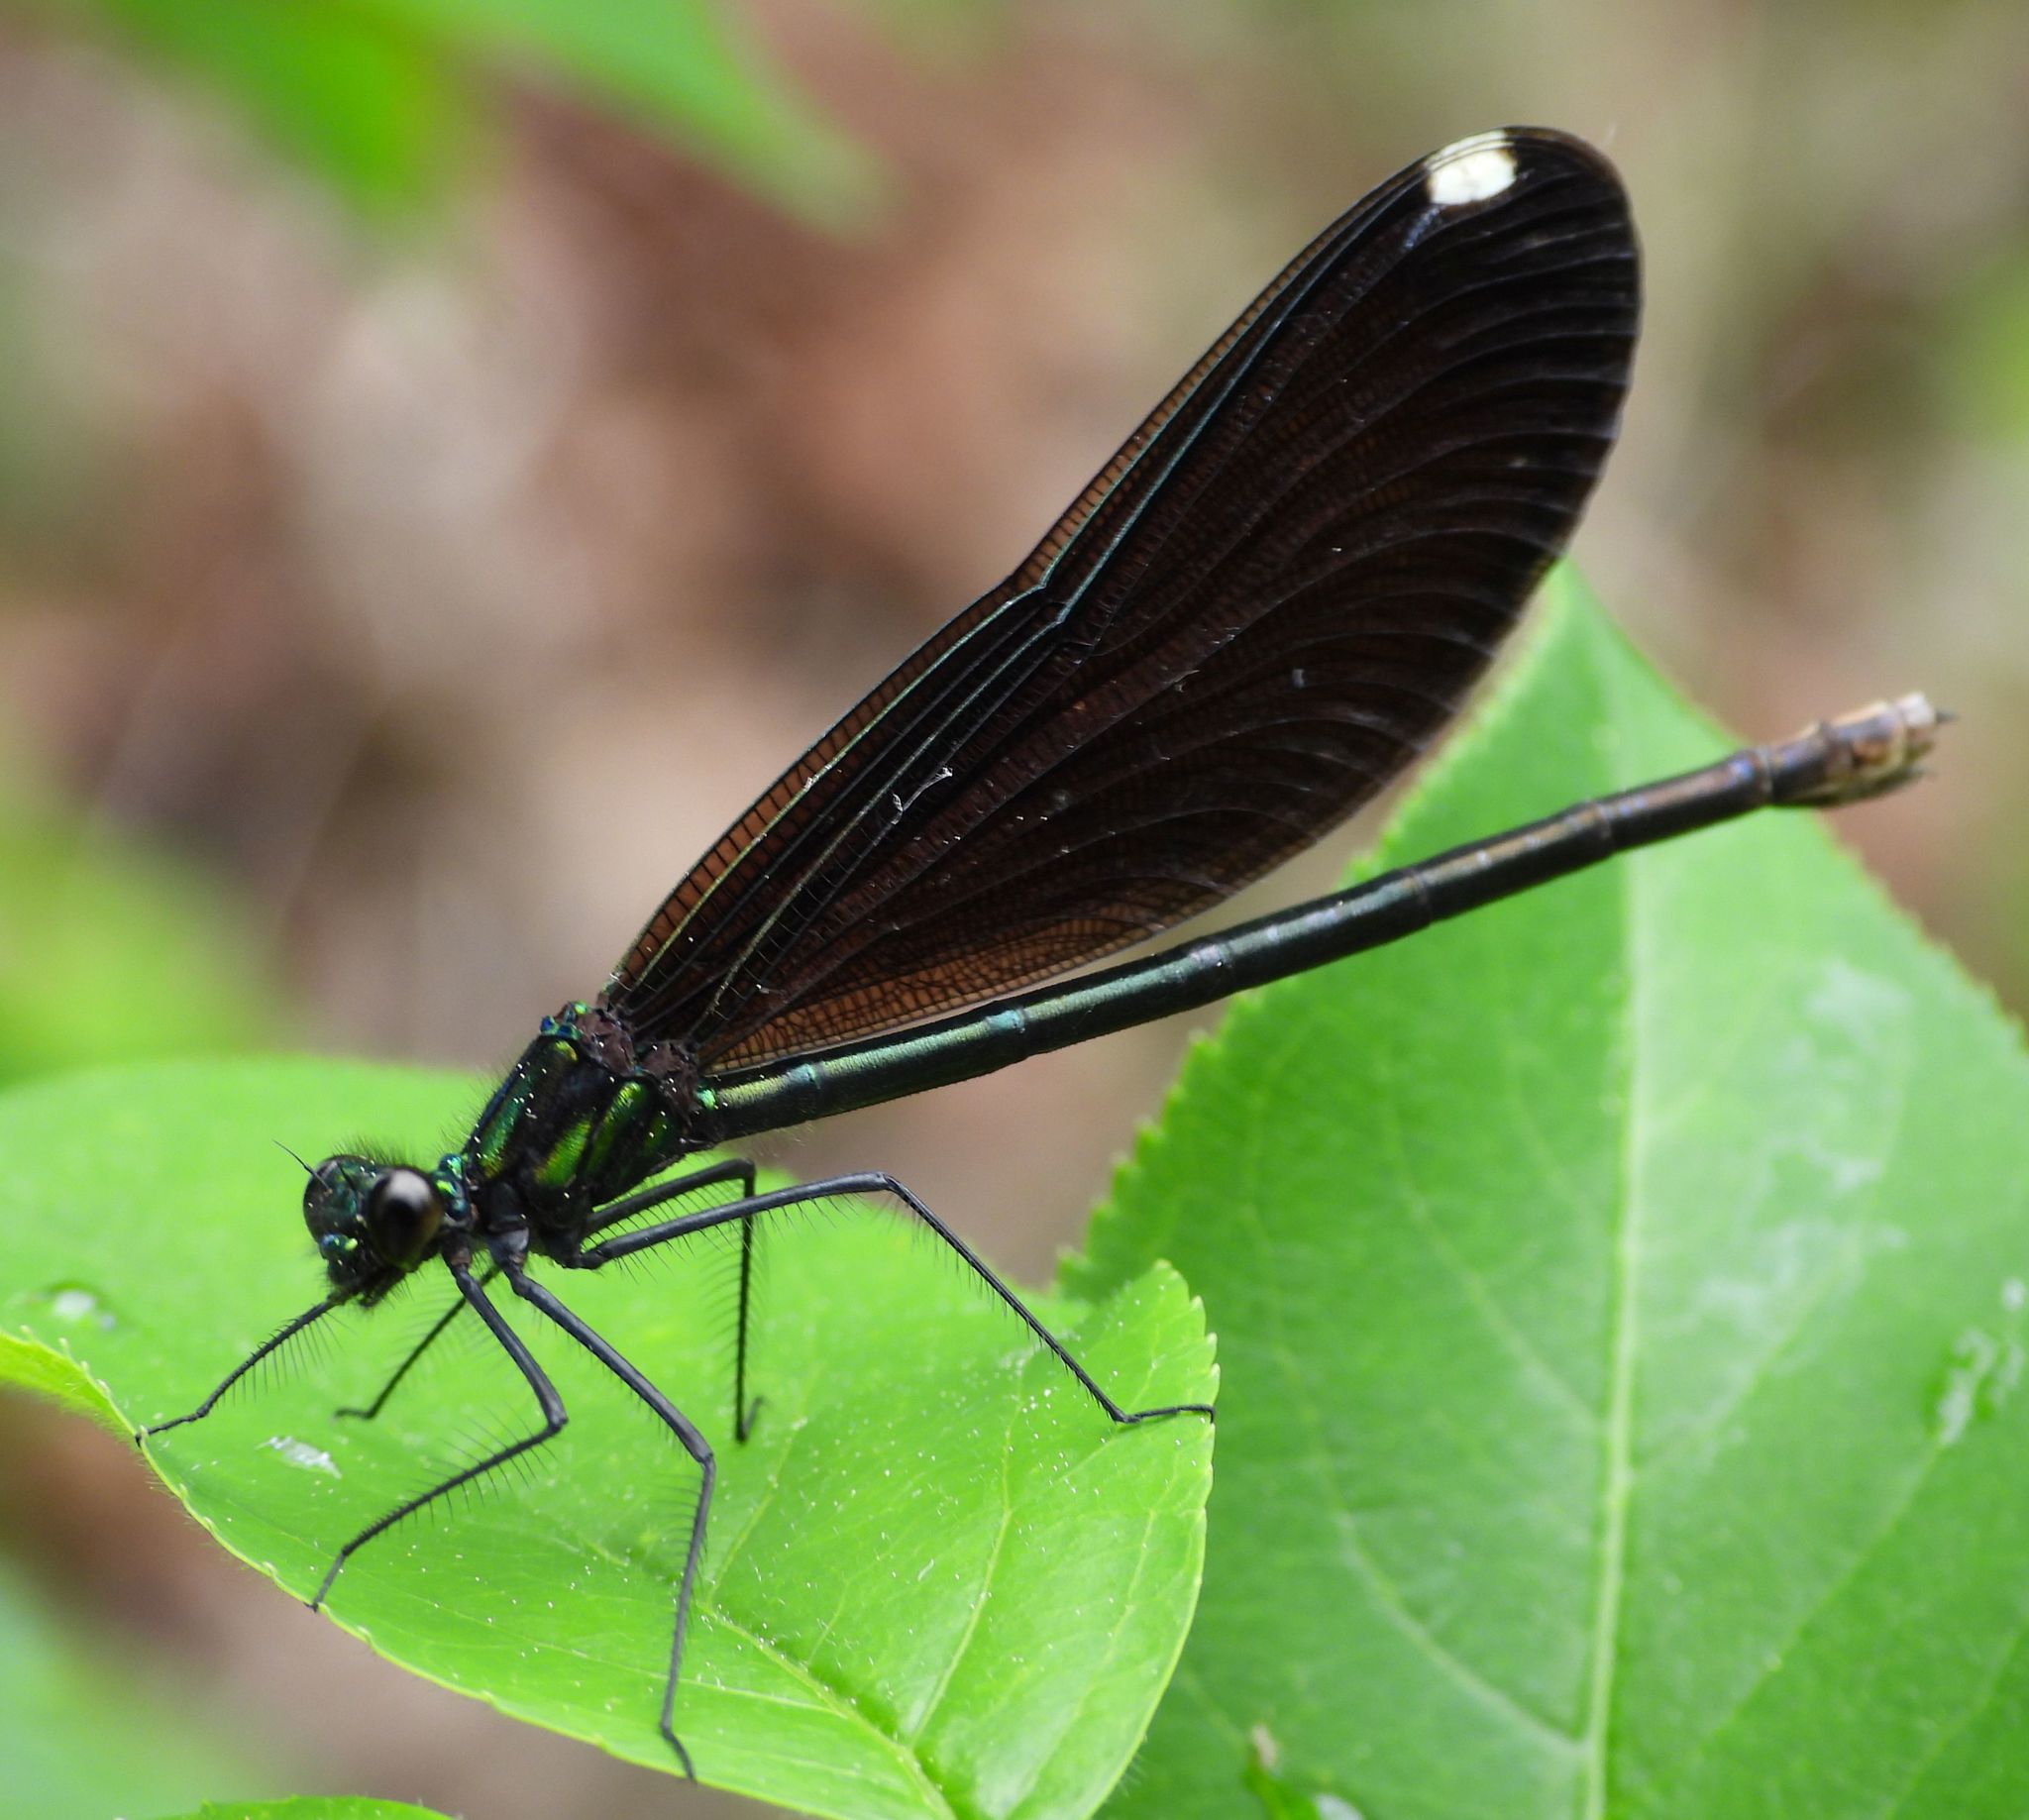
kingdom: Animalia
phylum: Arthropoda
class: Insecta
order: Odonata
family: Calopterygidae
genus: Calopteryx
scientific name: Calopteryx maculata
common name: Ebony jewelwing
